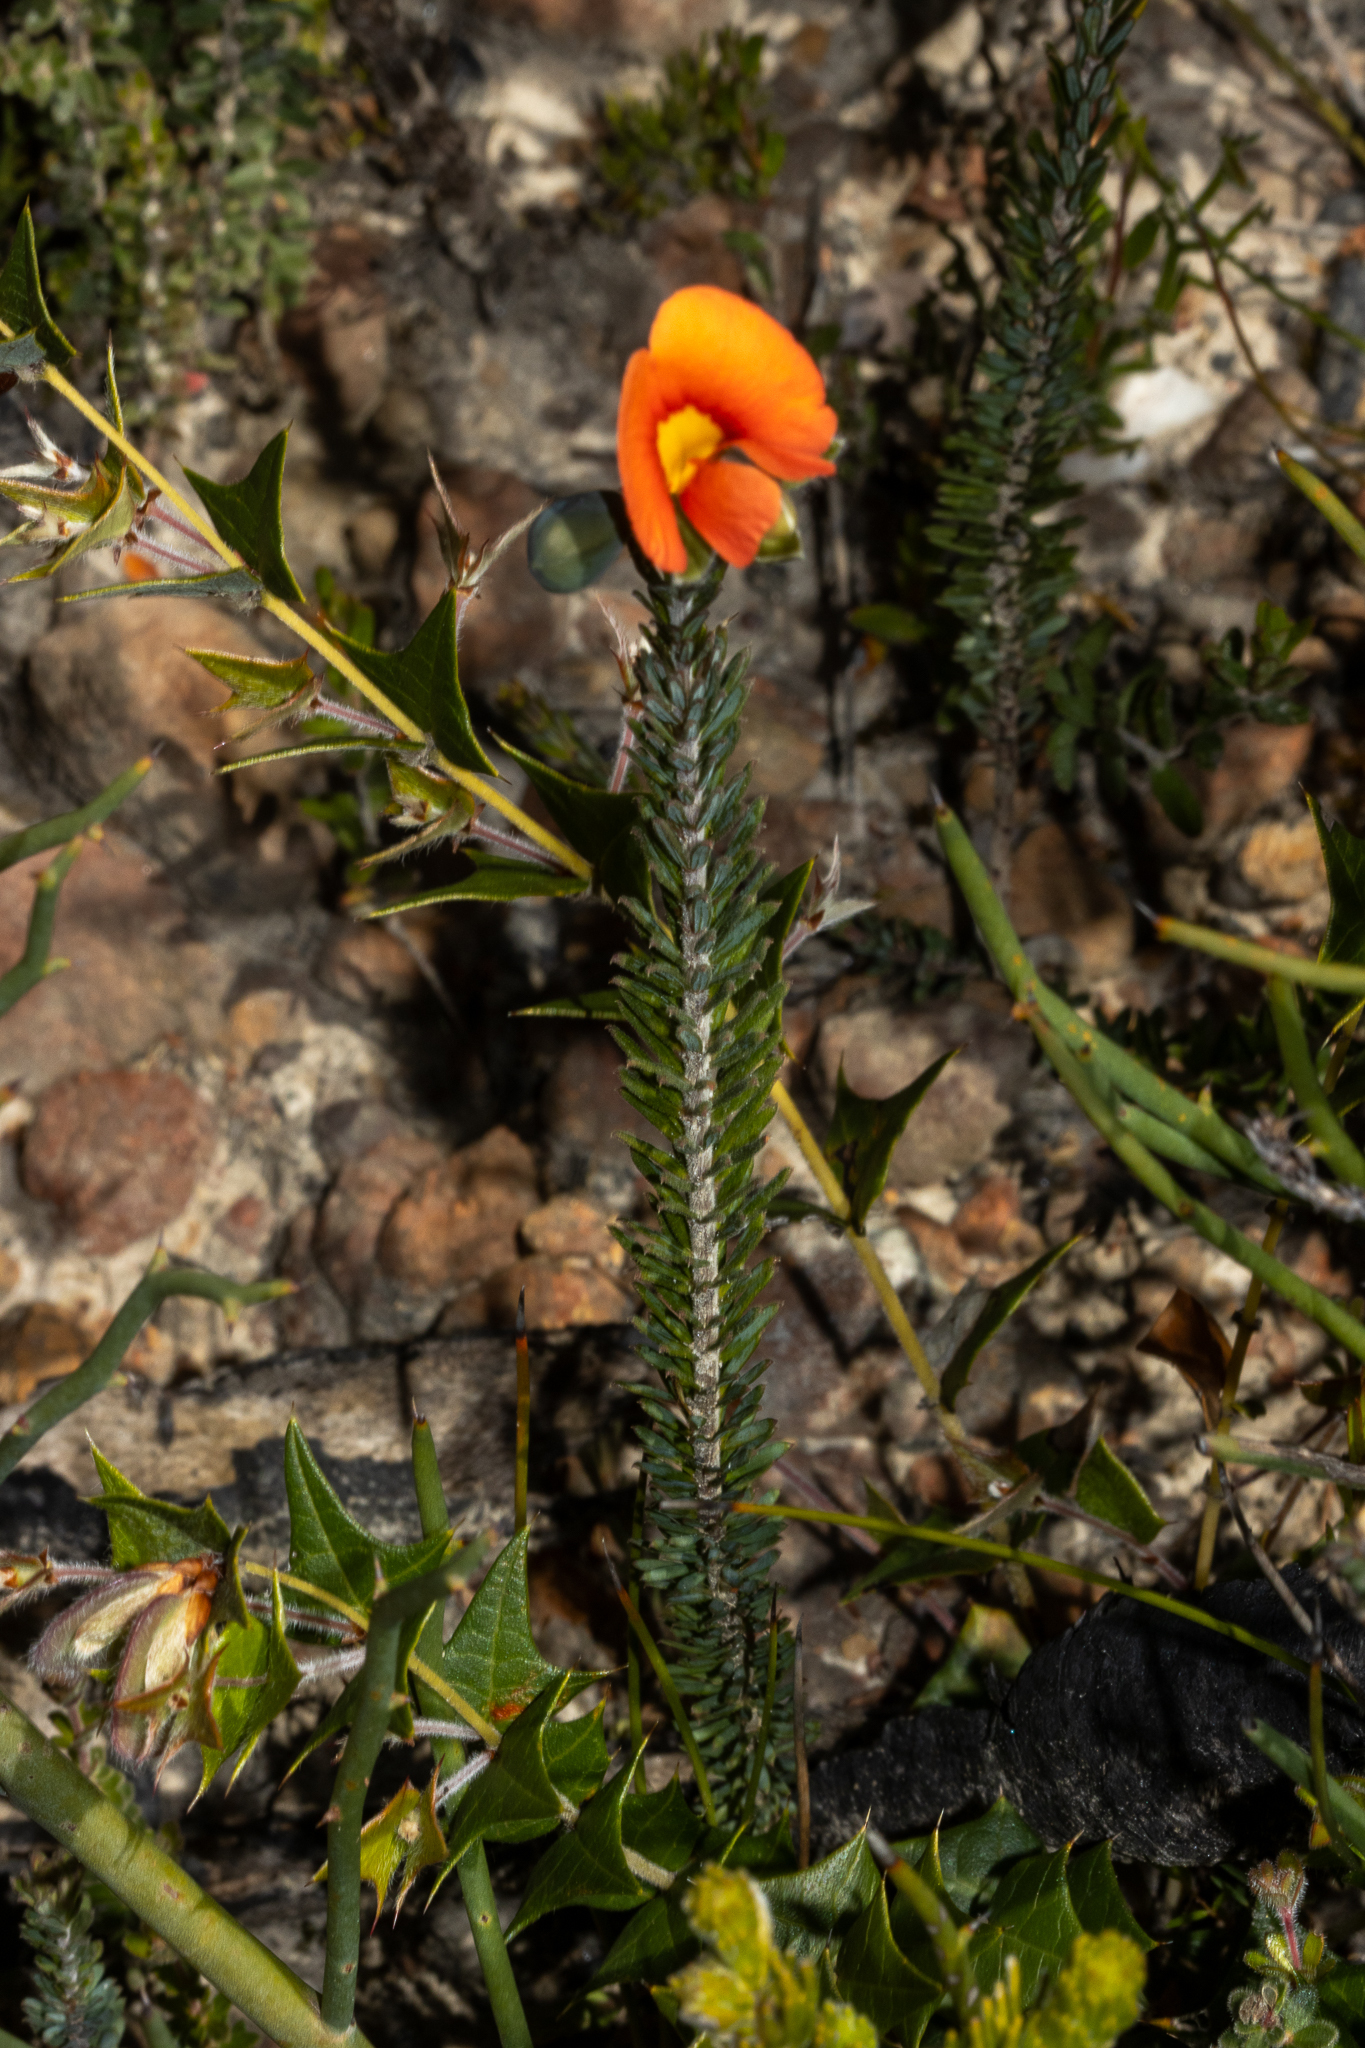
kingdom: Plantae
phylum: Tracheophyta
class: Magnoliopsida
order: Fabales
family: Fabaceae
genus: Gompholobium
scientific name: Gompholobium ecostatum
